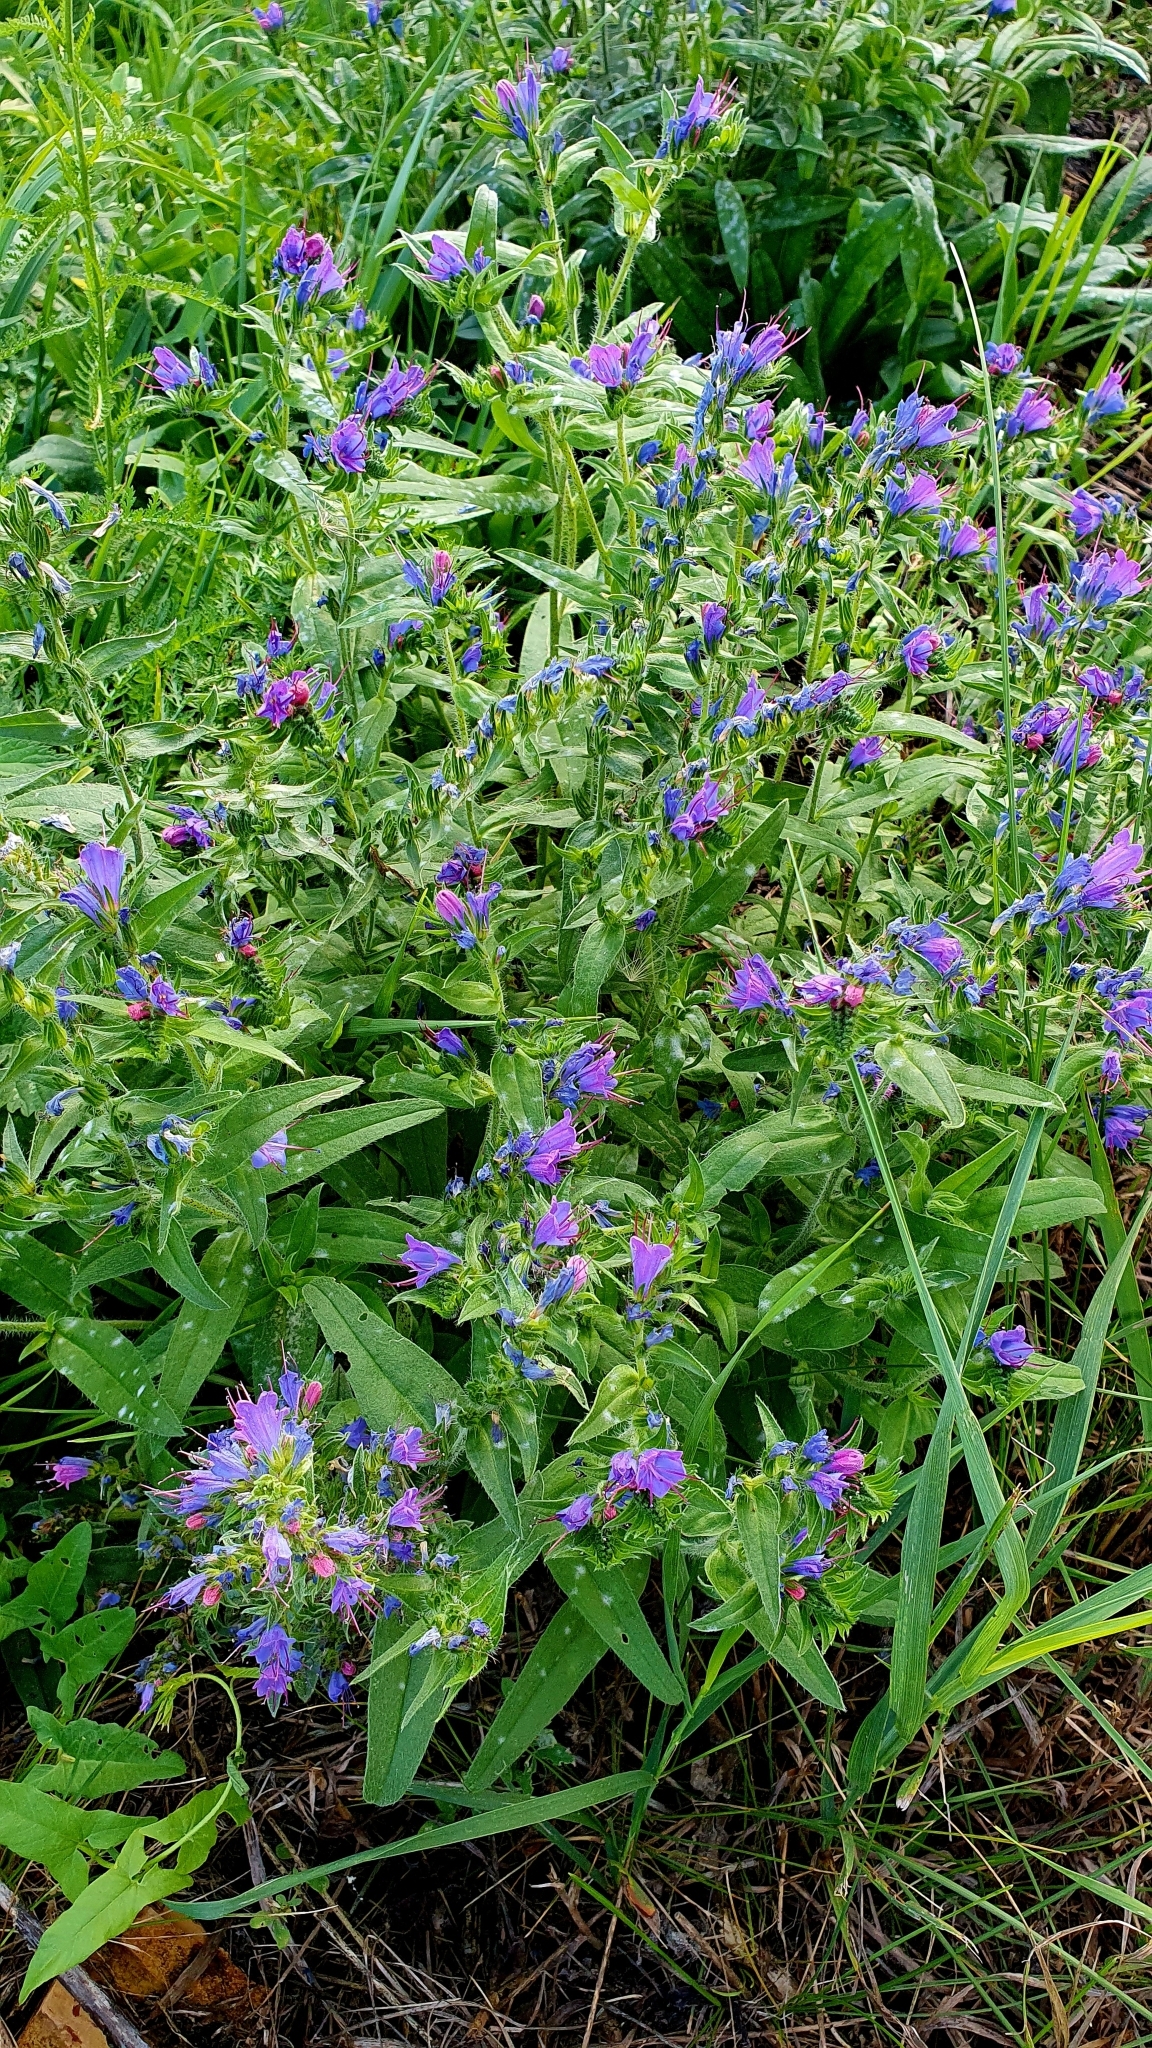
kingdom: Plantae
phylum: Tracheophyta
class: Magnoliopsida
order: Boraginales
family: Boraginaceae
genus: Echium
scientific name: Echium vulgare
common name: Common viper's bugloss
